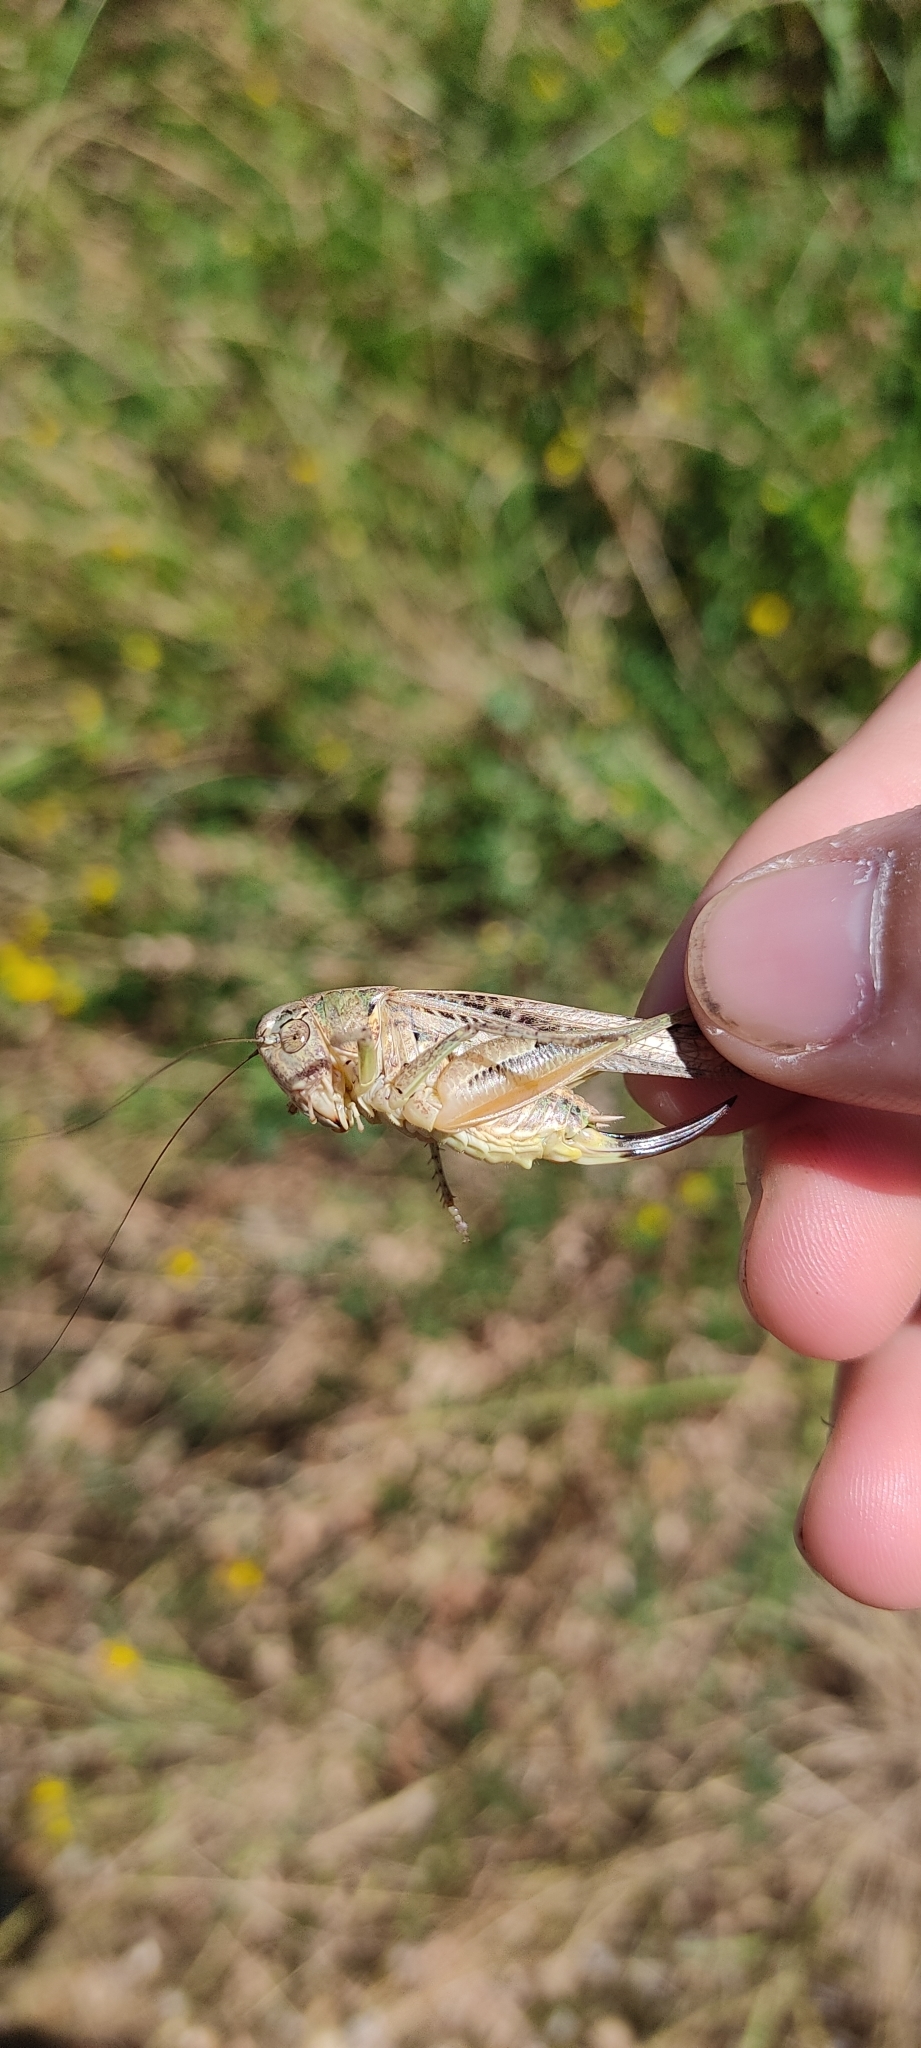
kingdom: Animalia
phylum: Arthropoda
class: Insecta
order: Orthoptera
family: Tettigoniidae
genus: Platycleis
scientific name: Platycleis affinis
